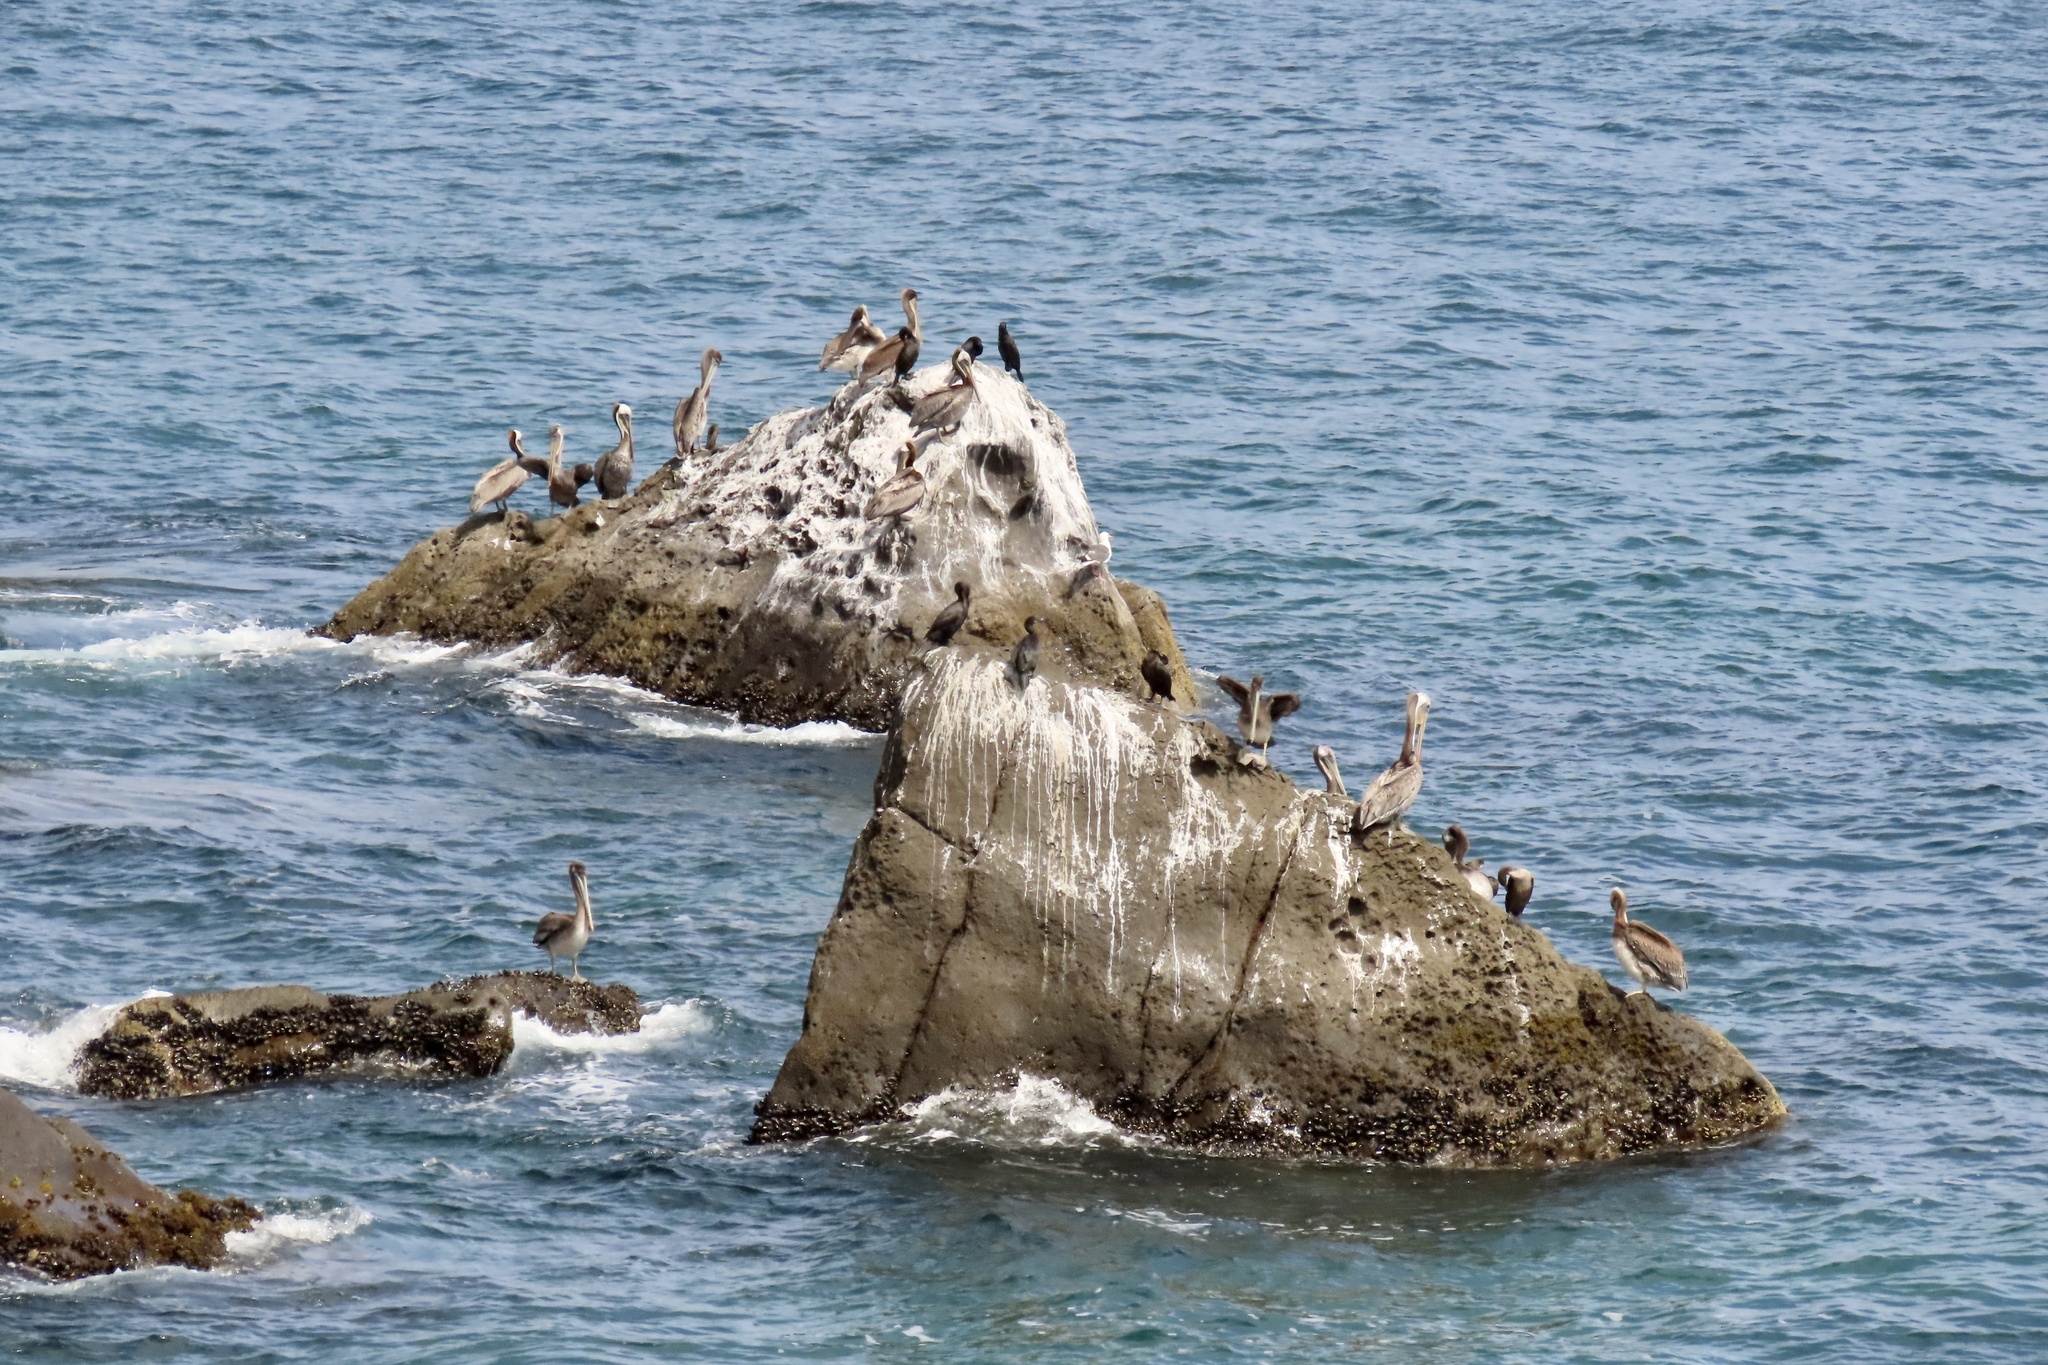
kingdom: Animalia
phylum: Chordata
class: Aves
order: Suliformes
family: Phalacrocoracidae
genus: Urile
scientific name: Urile penicillatus
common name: Brandt's cormorant
